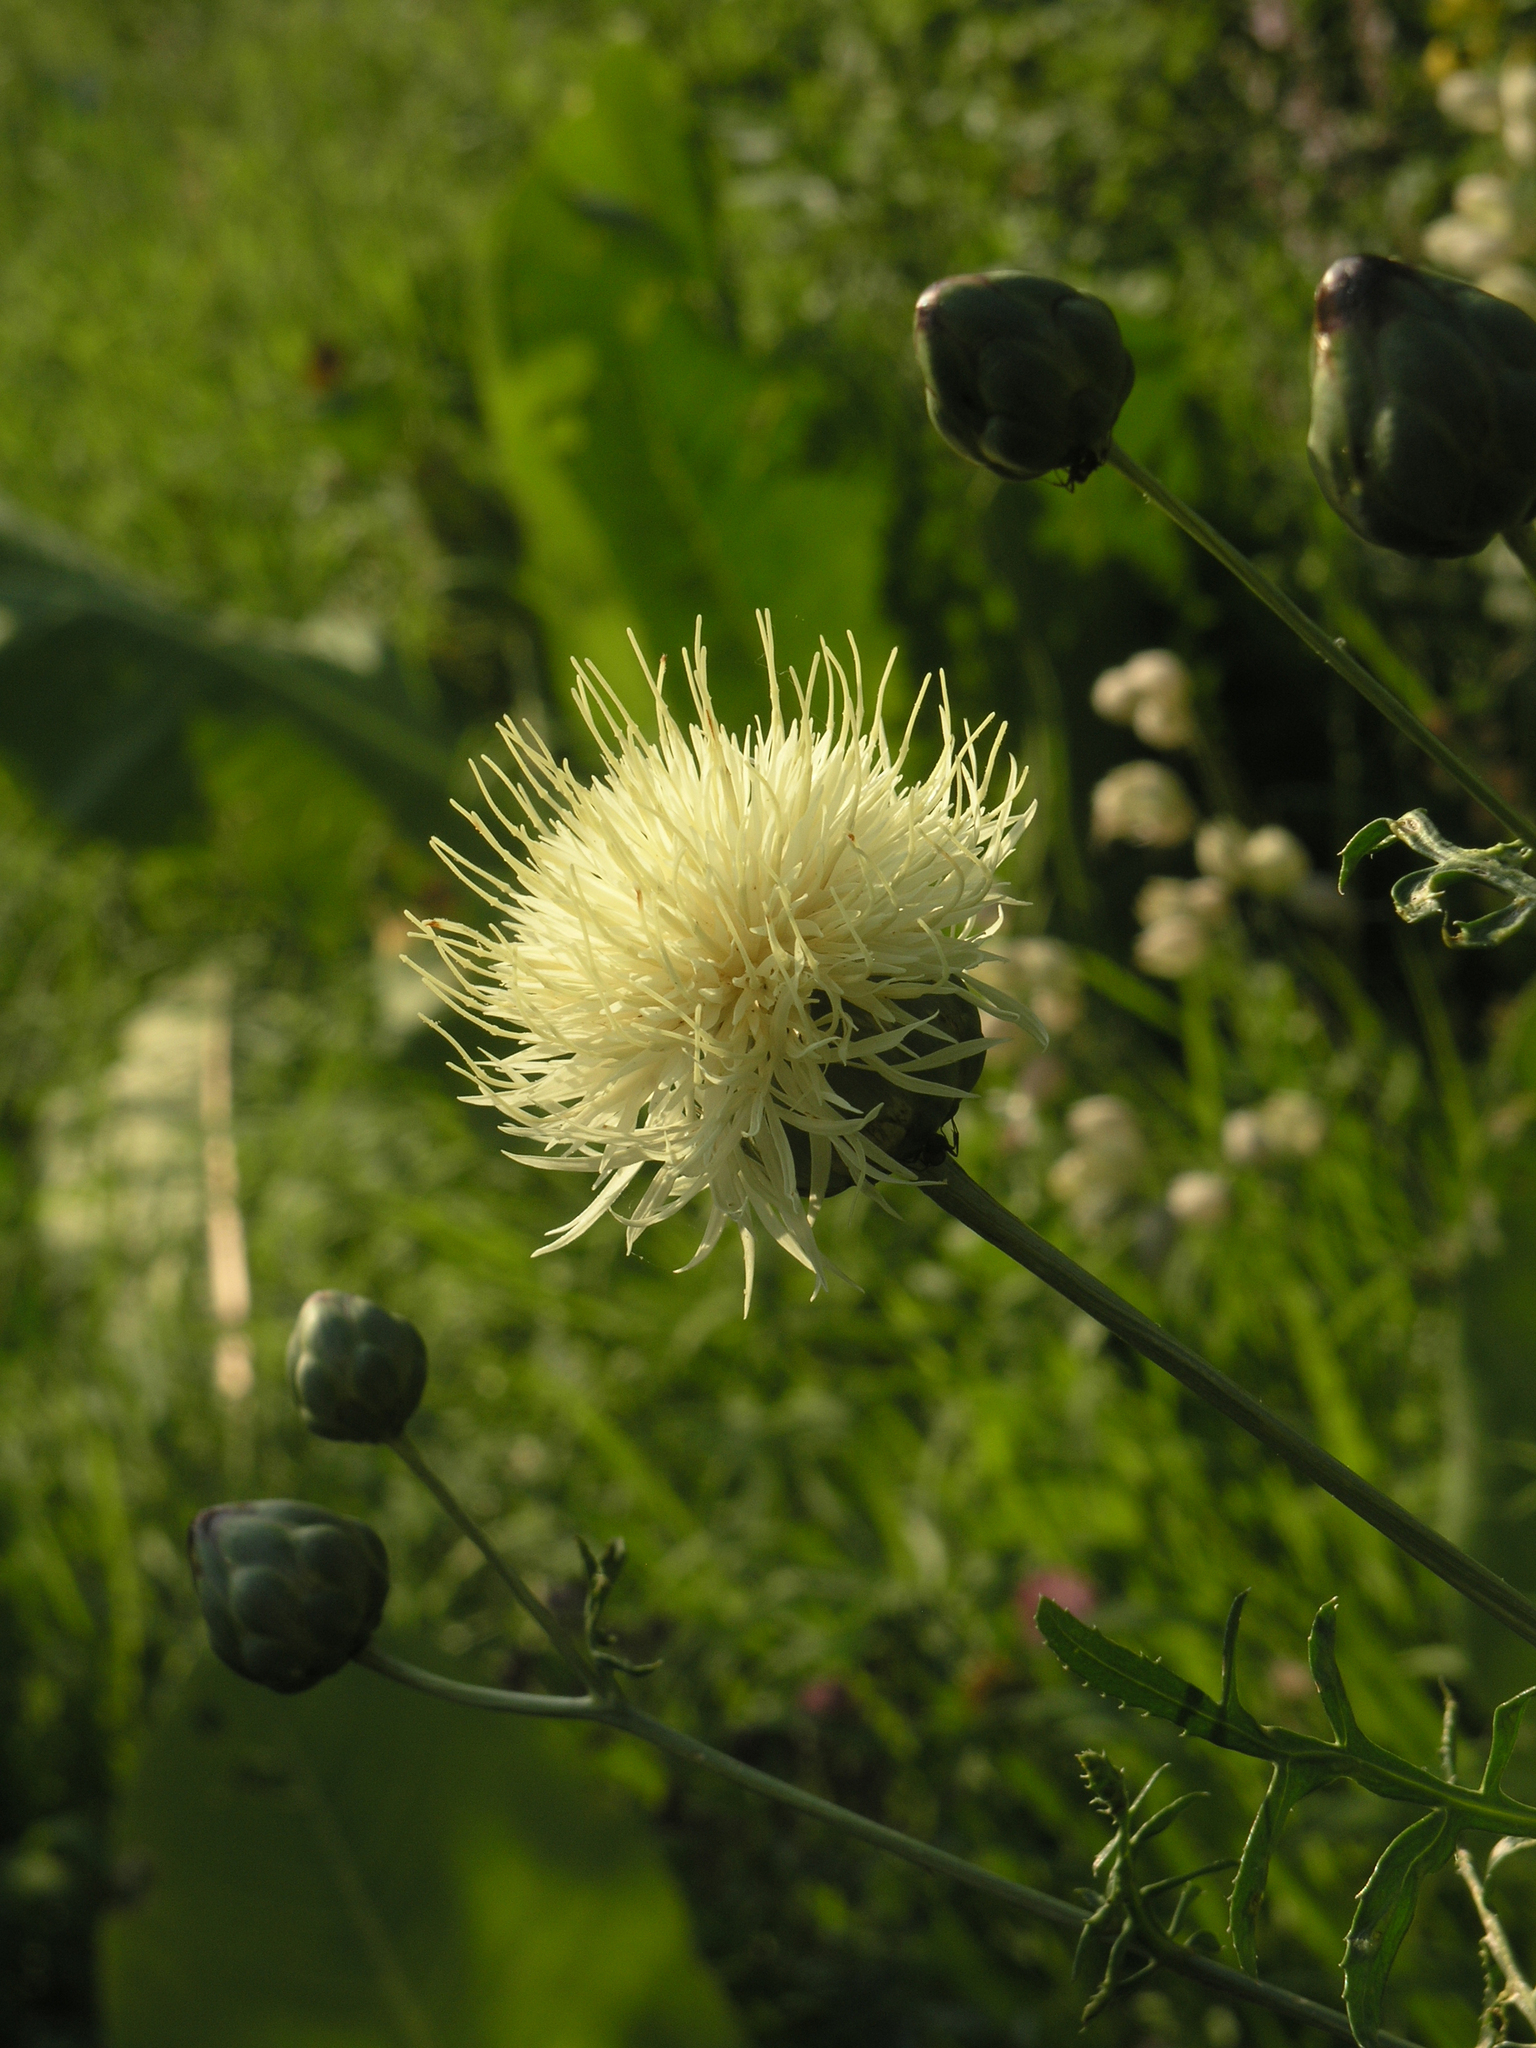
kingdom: Plantae
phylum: Tracheophyta
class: Magnoliopsida
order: Asterales
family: Asteraceae
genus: Rhaponticoides
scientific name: Rhaponticoides ruthenica
